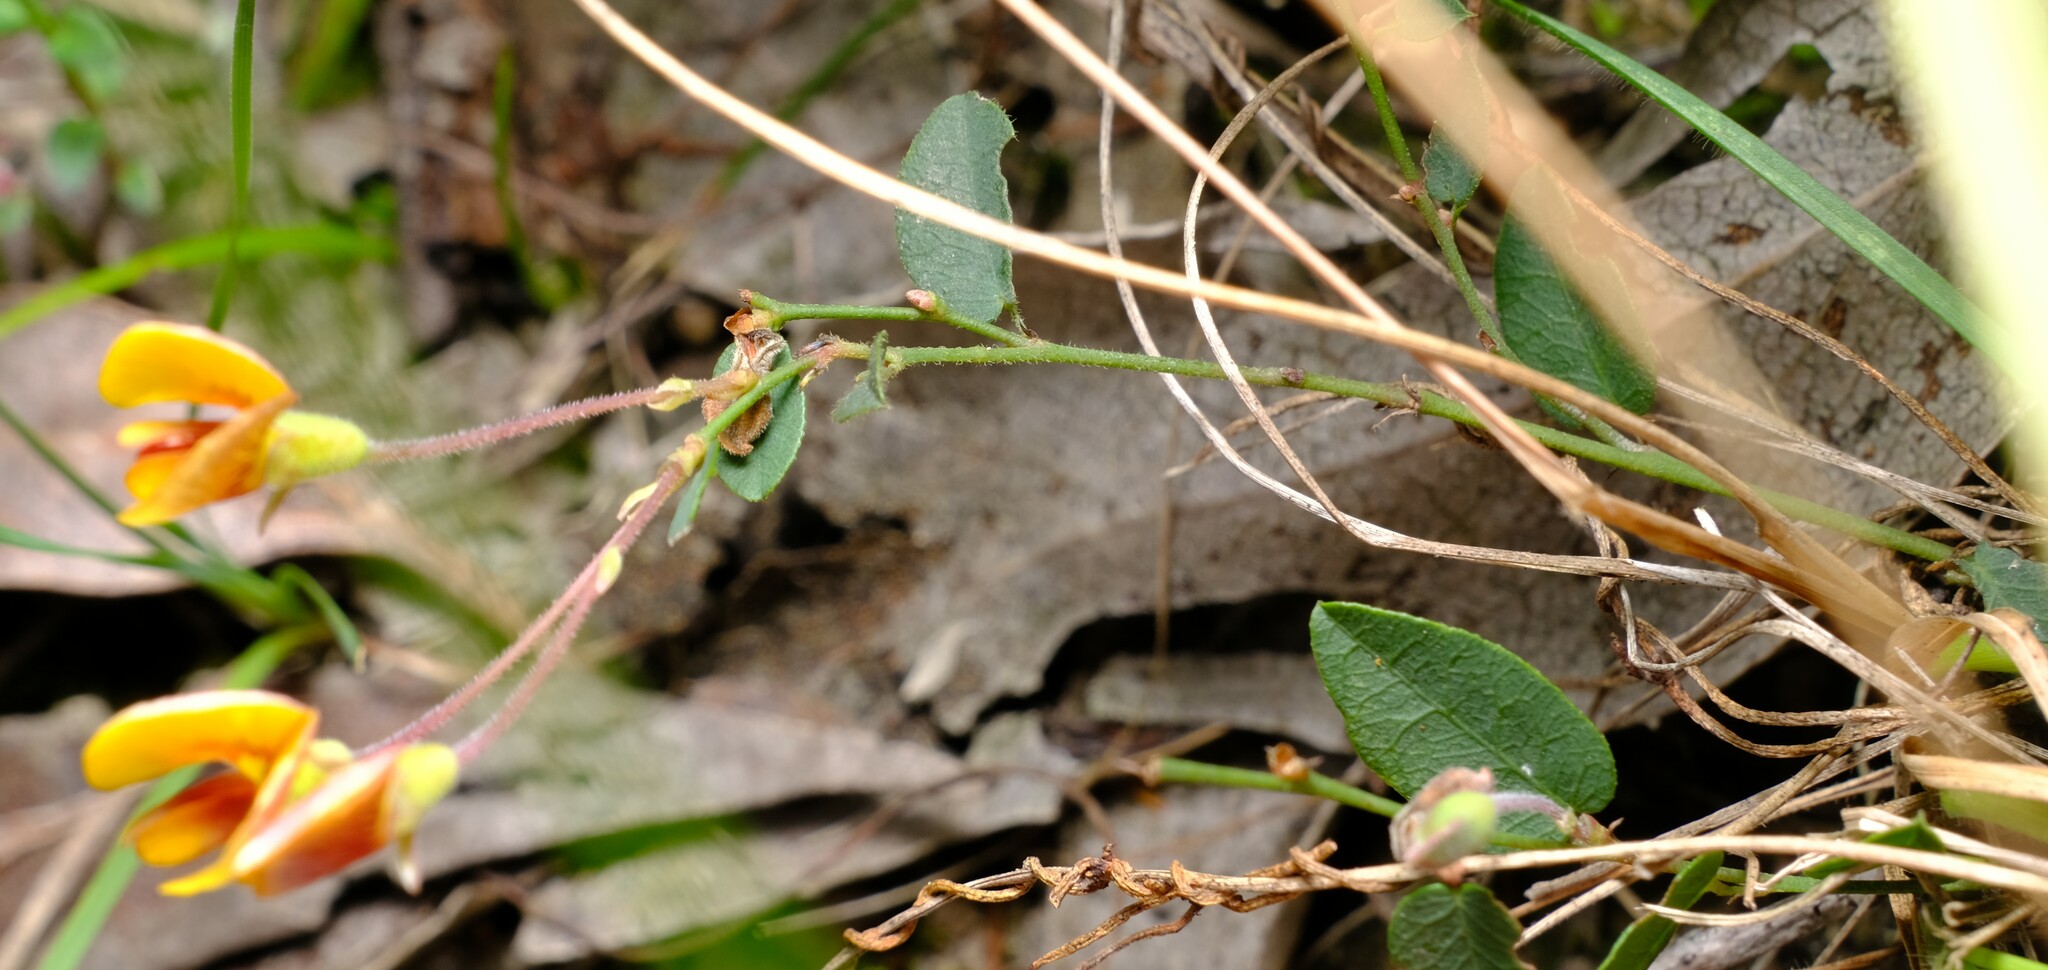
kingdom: Plantae
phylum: Tracheophyta
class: Magnoliopsida
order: Fabales
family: Fabaceae
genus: Bossiaea
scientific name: Bossiaea prostrata
